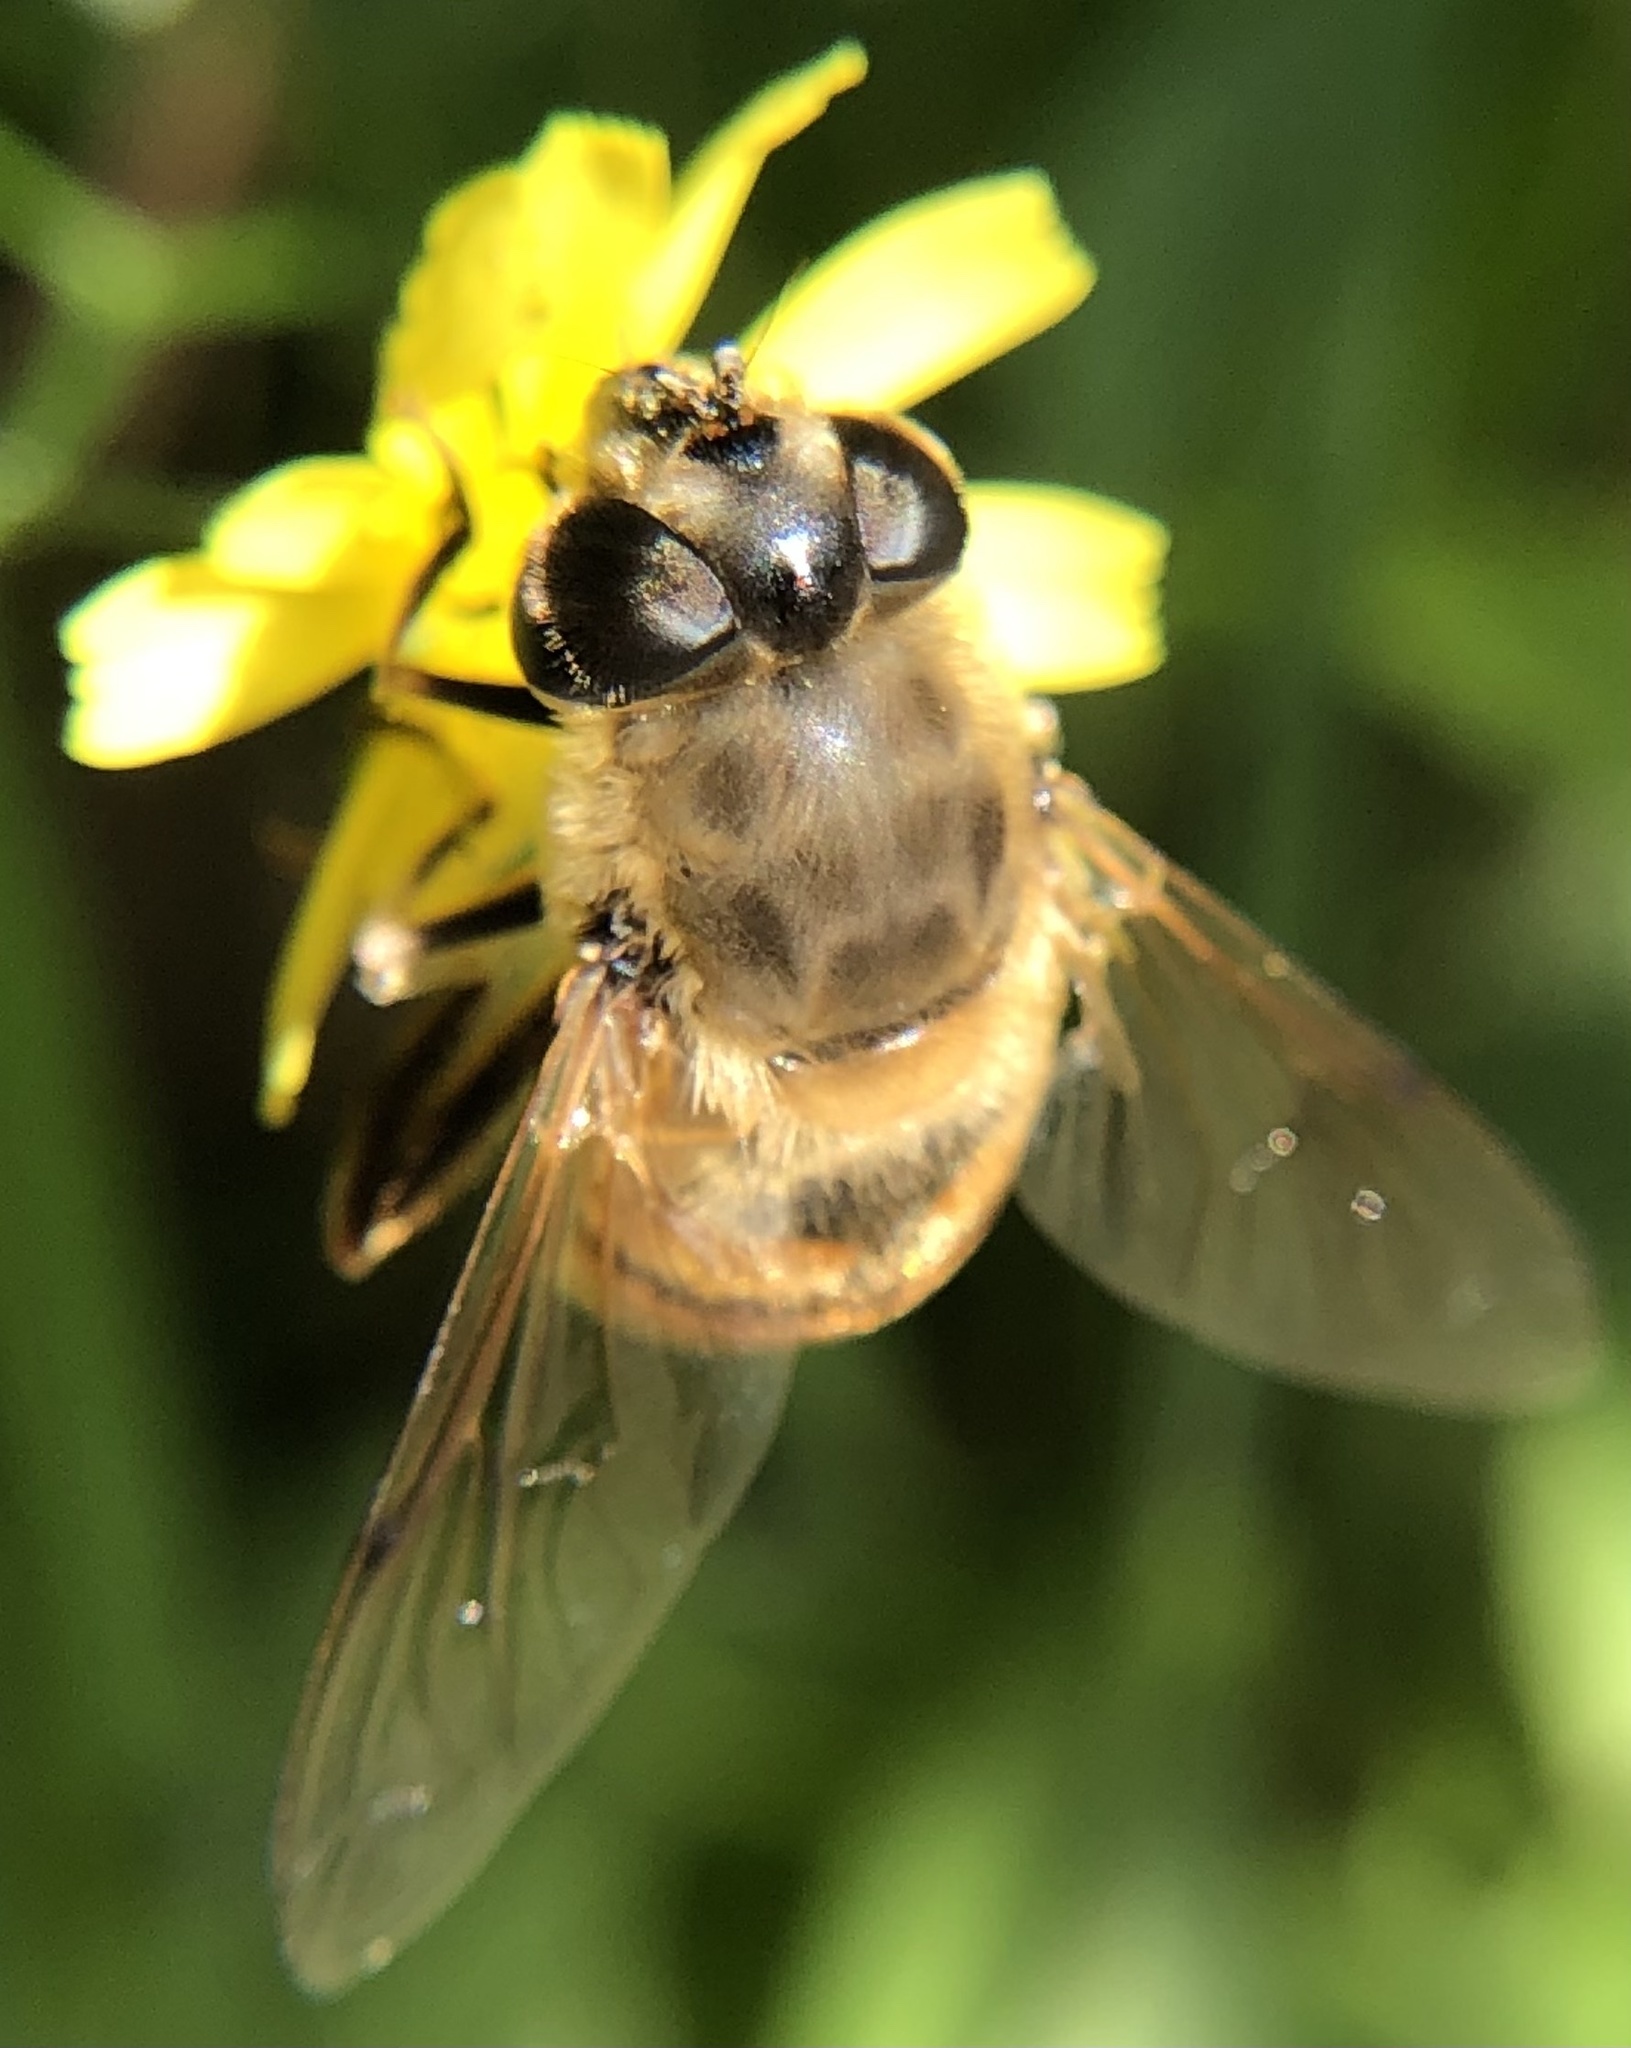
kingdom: Animalia
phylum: Arthropoda
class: Insecta
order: Diptera
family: Syrphidae
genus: Eristalis
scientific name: Eristalis tenax
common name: Drone fly
